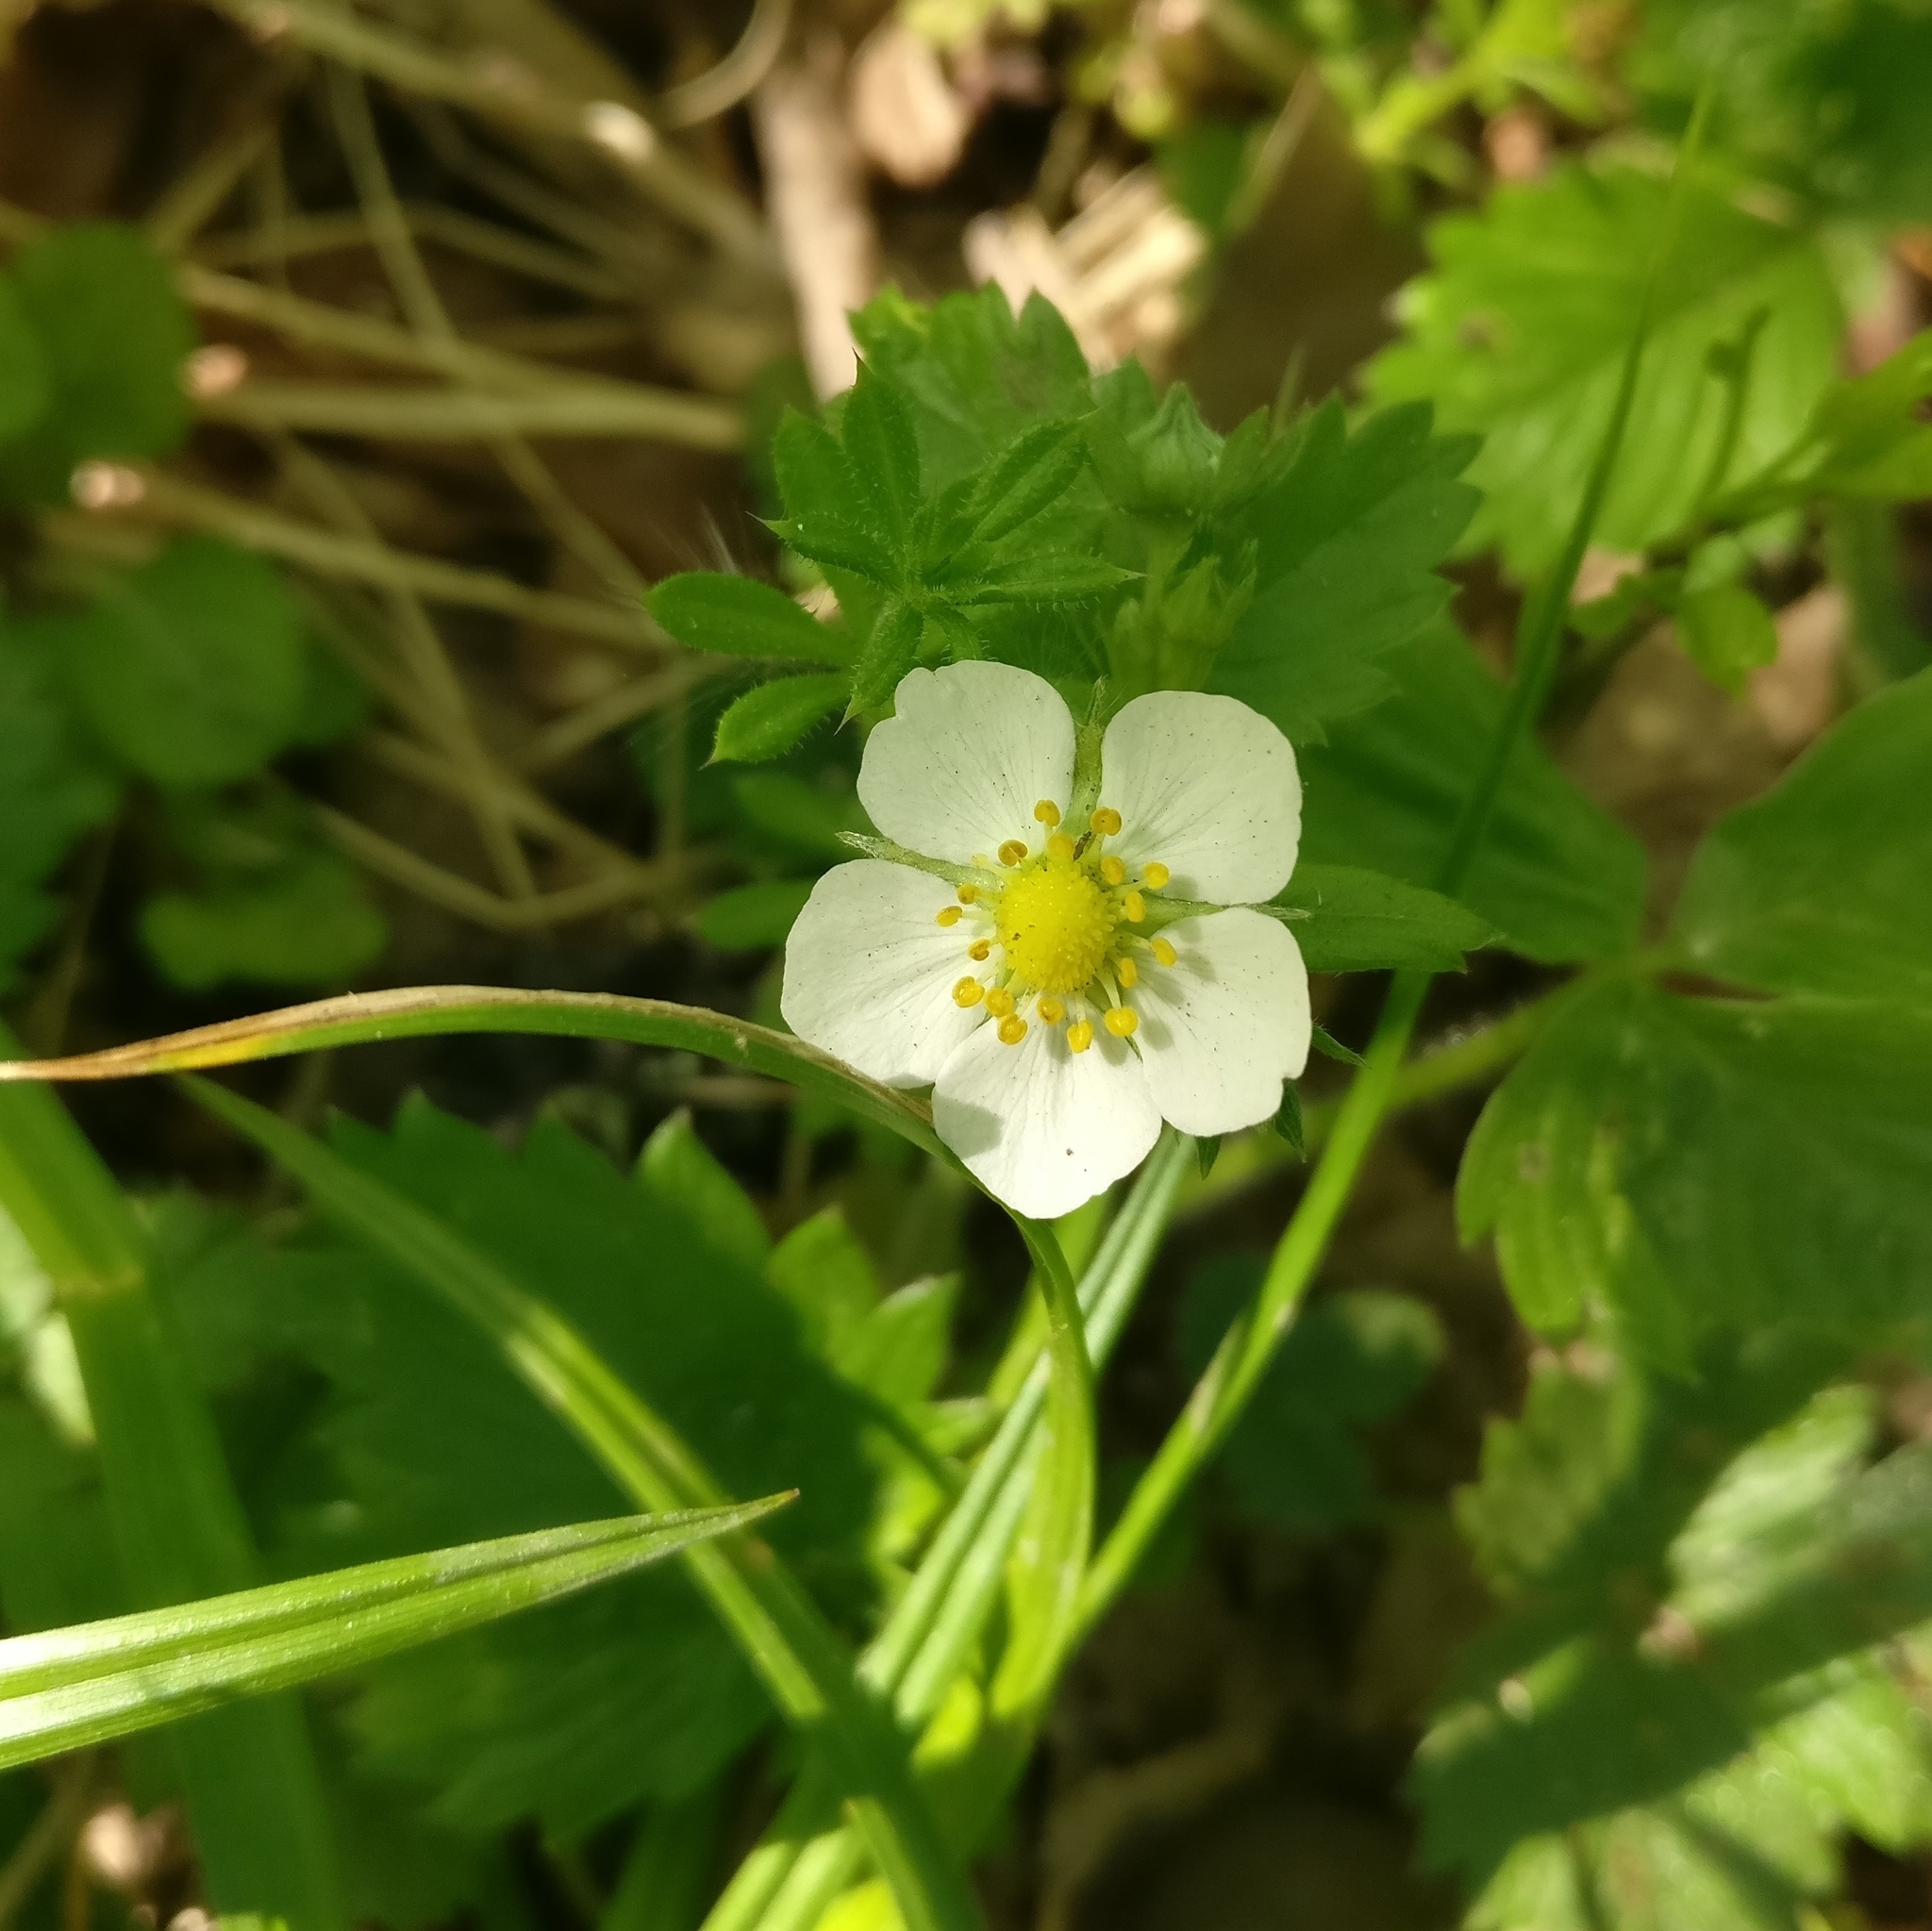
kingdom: Plantae
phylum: Tracheophyta
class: Magnoliopsida
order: Rosales
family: Rosaceae
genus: Fragaria
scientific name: Fragaria vesca
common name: Wild strawberry
